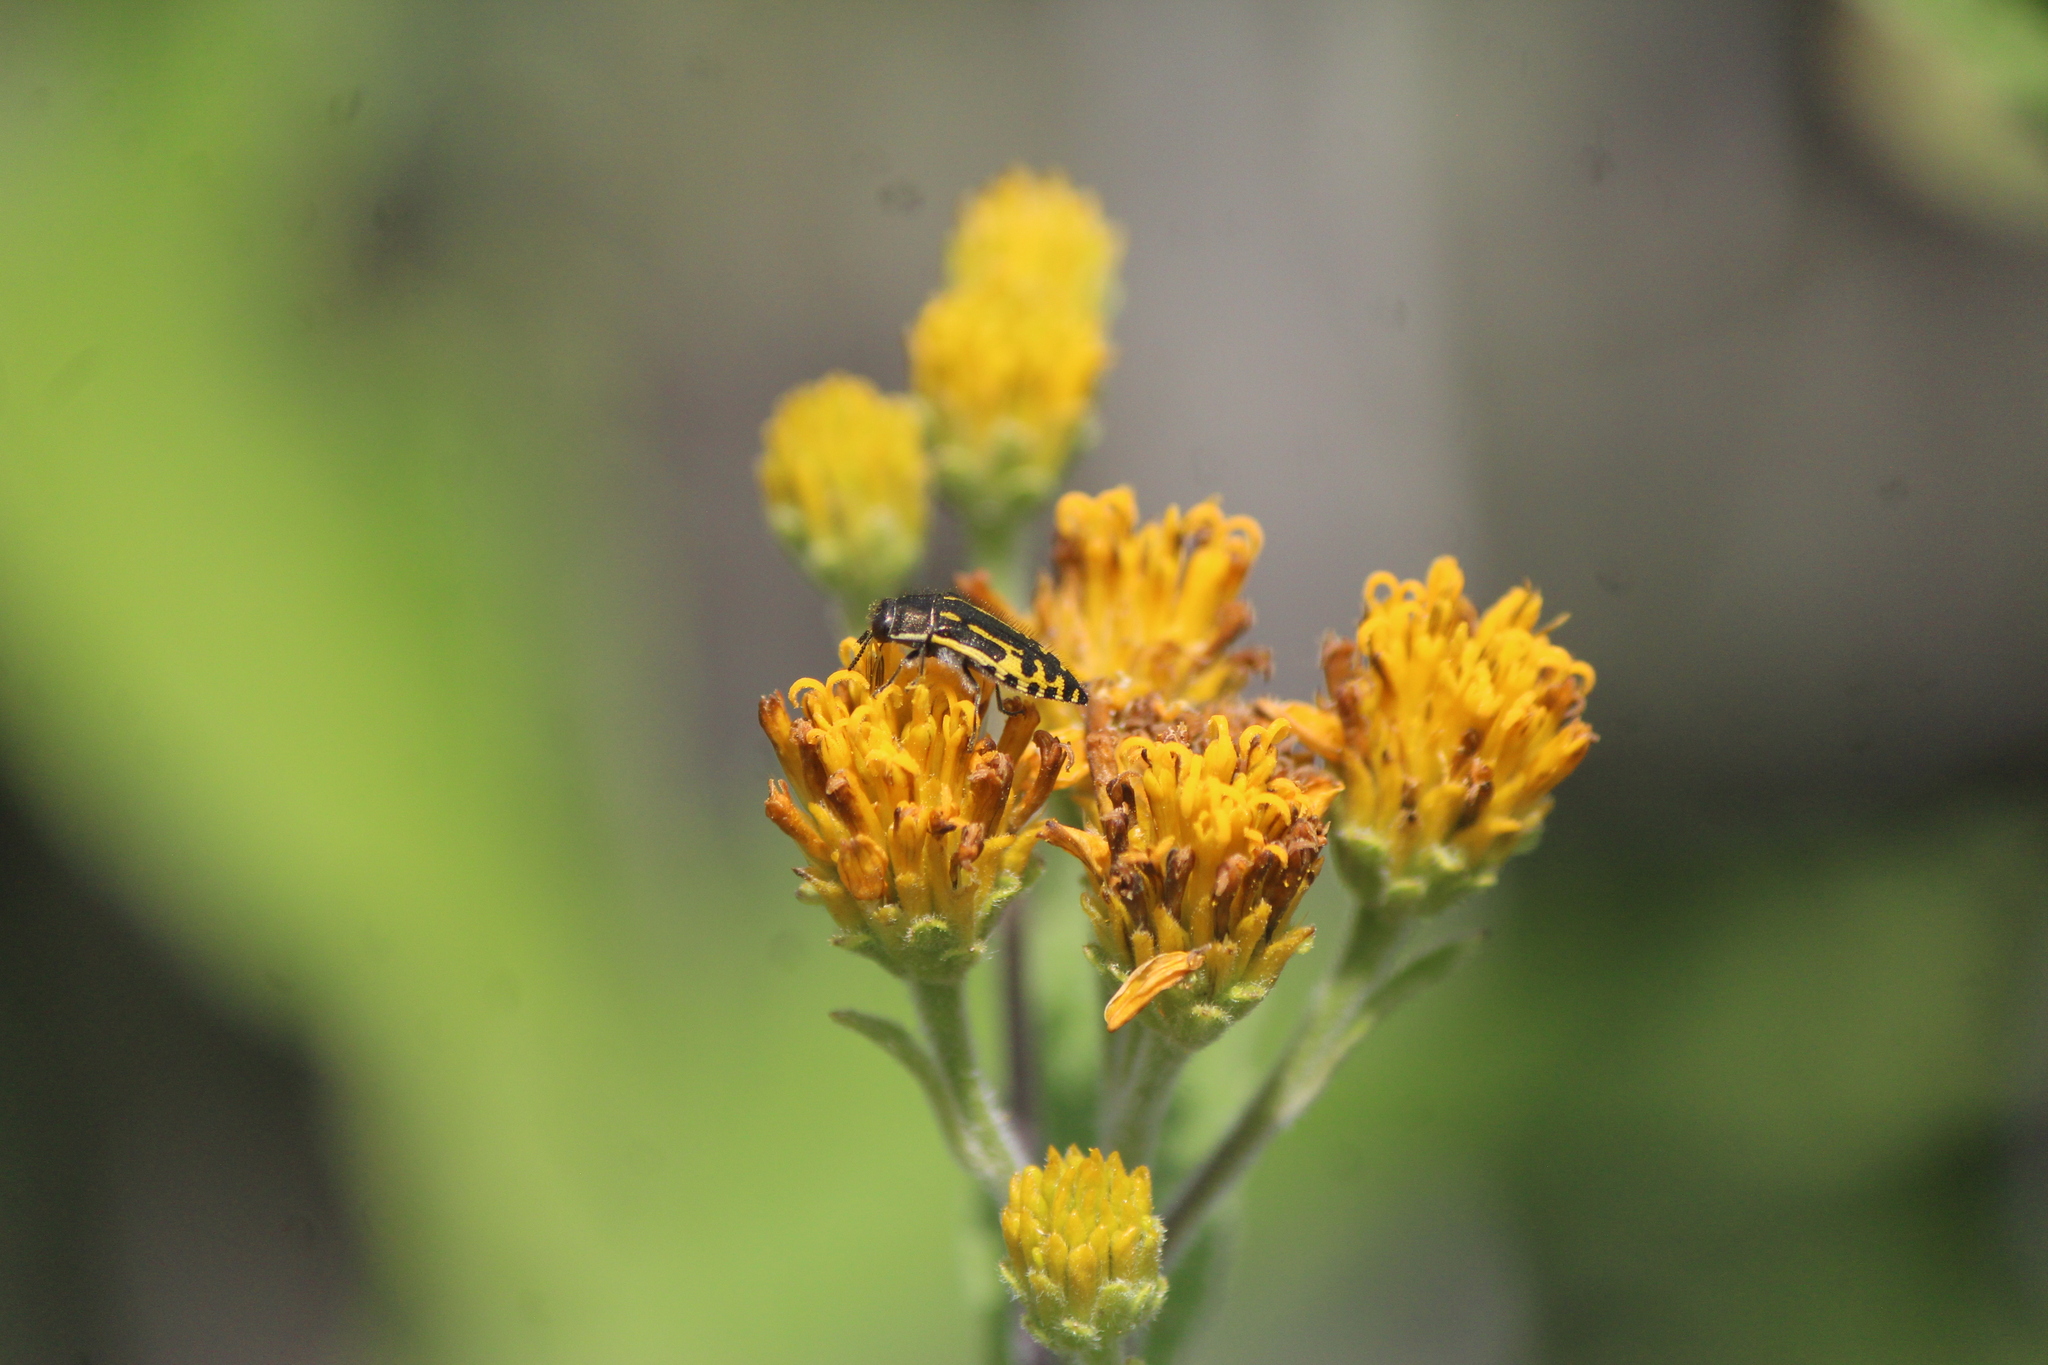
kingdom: Animalia
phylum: Arthropoda
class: Insecta
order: Coleoptera
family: Buprestidae
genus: Acmaeodera
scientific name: Acmaeodera scalaris
